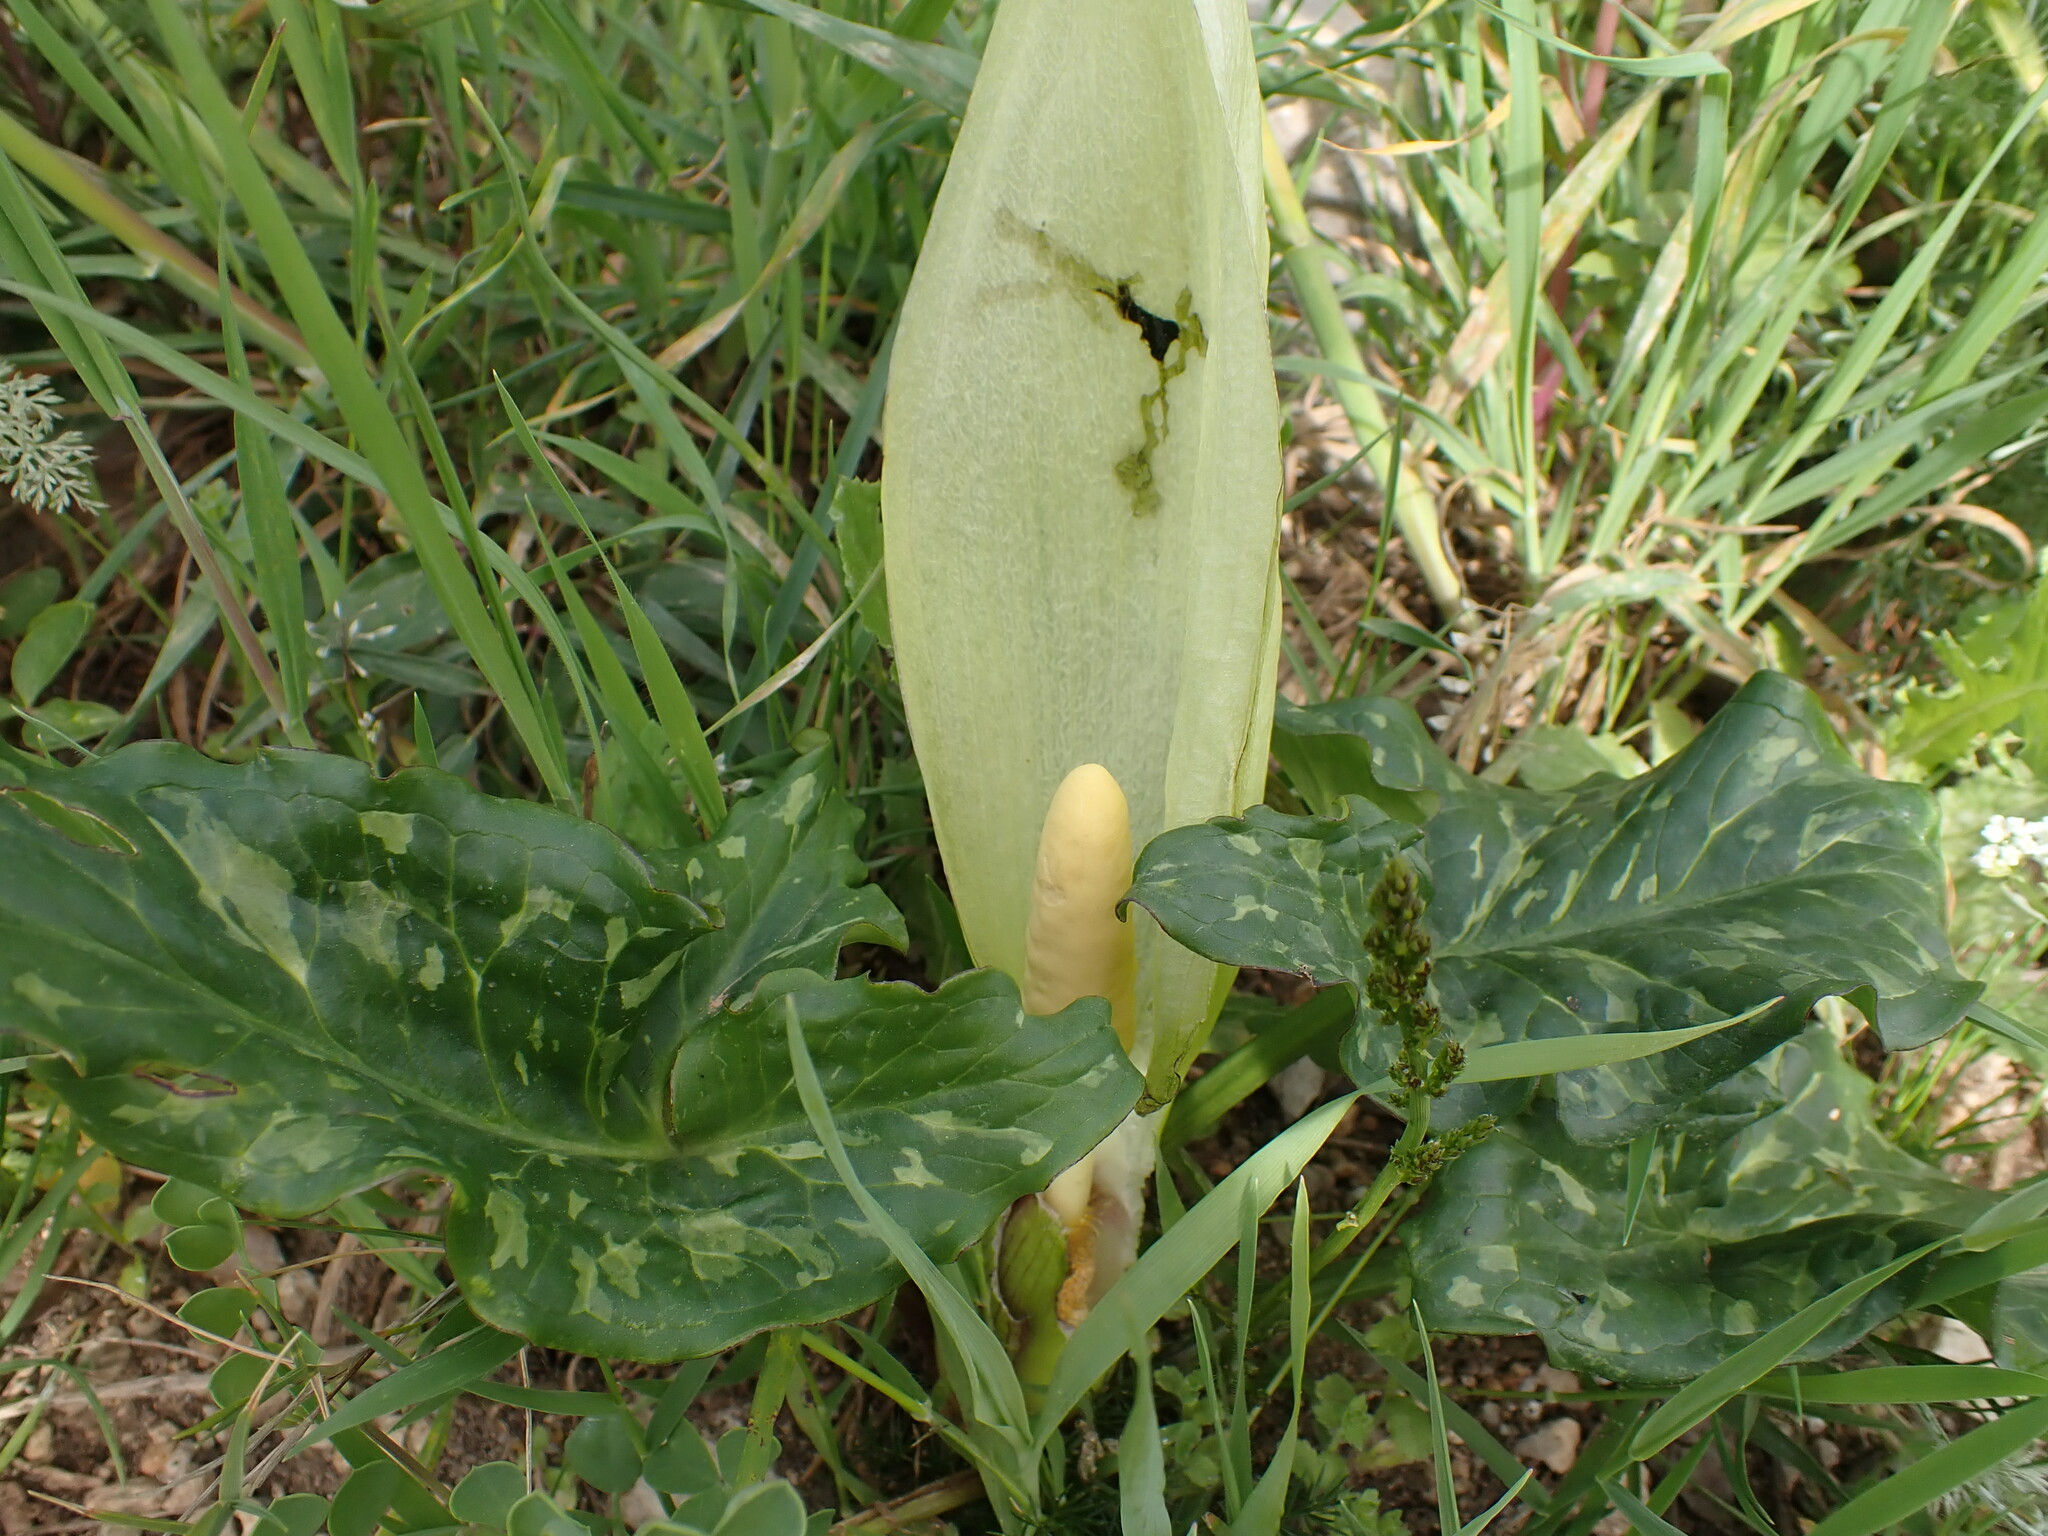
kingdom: Plantae
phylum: Tracheophyta
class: Liliopsida
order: Alismatales
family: Araceae
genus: Arum
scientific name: Arum italicum
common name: Italian lords-and-ladies
